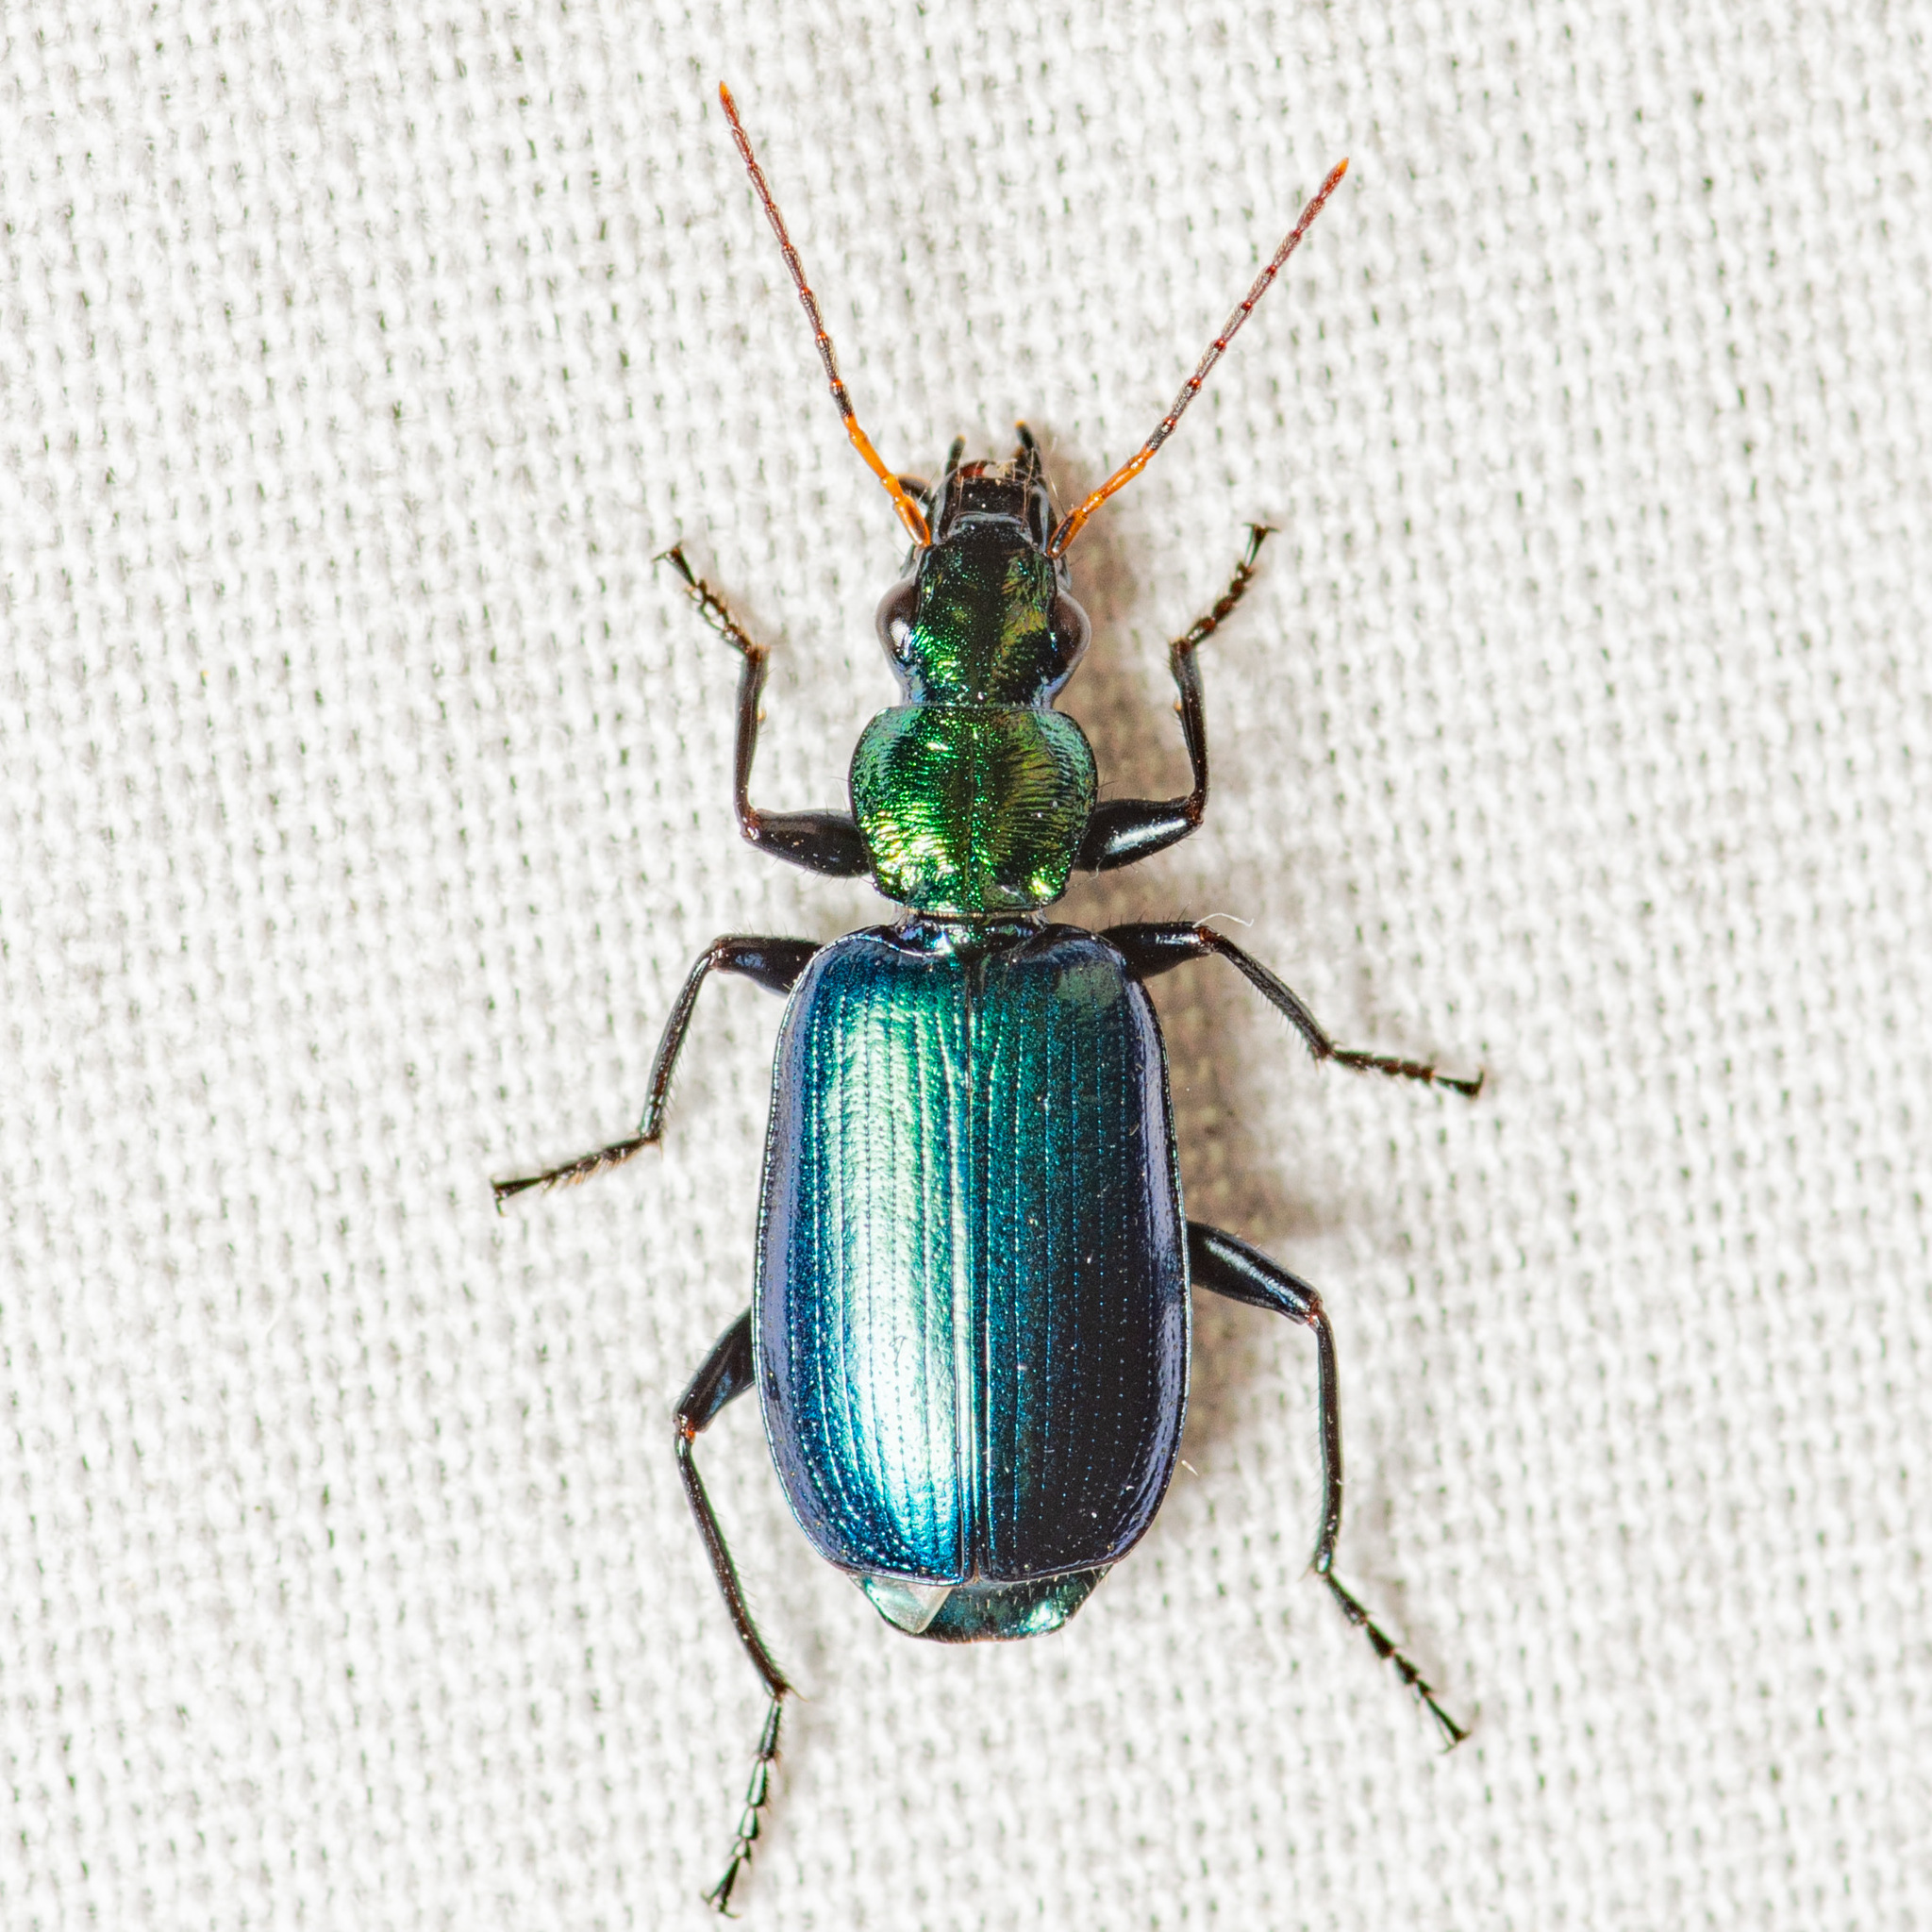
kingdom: Animalia
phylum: Arthropoda
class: Insecta
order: Coleoptera
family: Carabidae
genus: Philophuga
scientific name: Philophuga viridicollis
